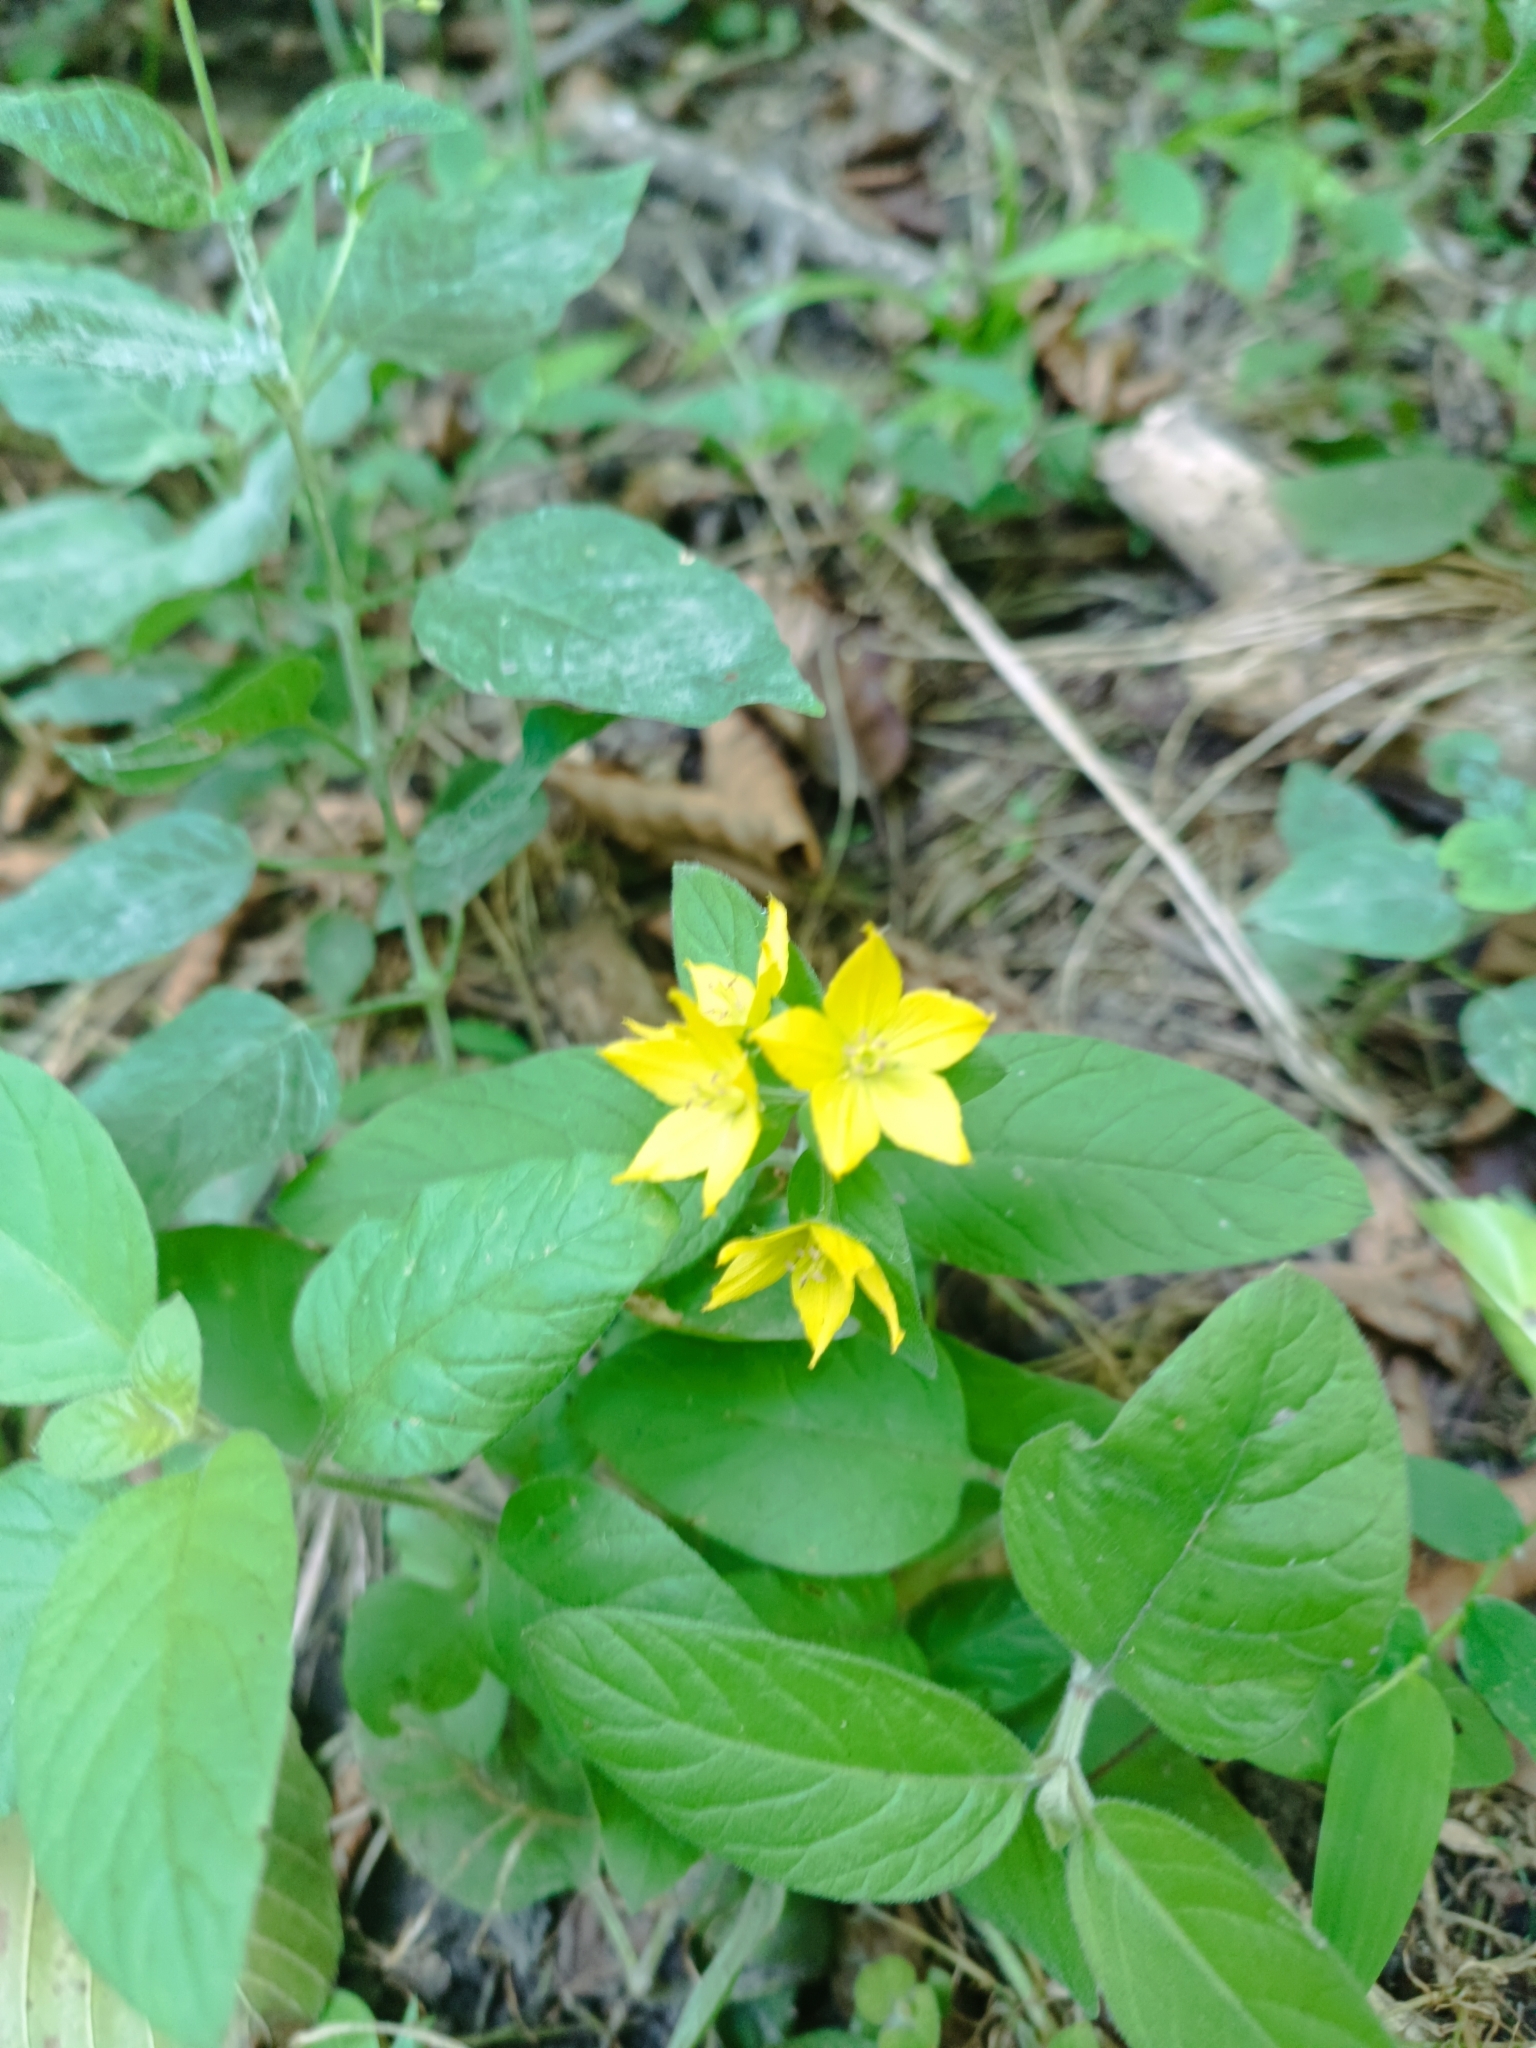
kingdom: Plantae
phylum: Tracheophyta
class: Magnoliopsida
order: Ericales
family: Primulaceae
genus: Lysimachia
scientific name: Lysimachia verticillaris
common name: Yellow loosestrife
